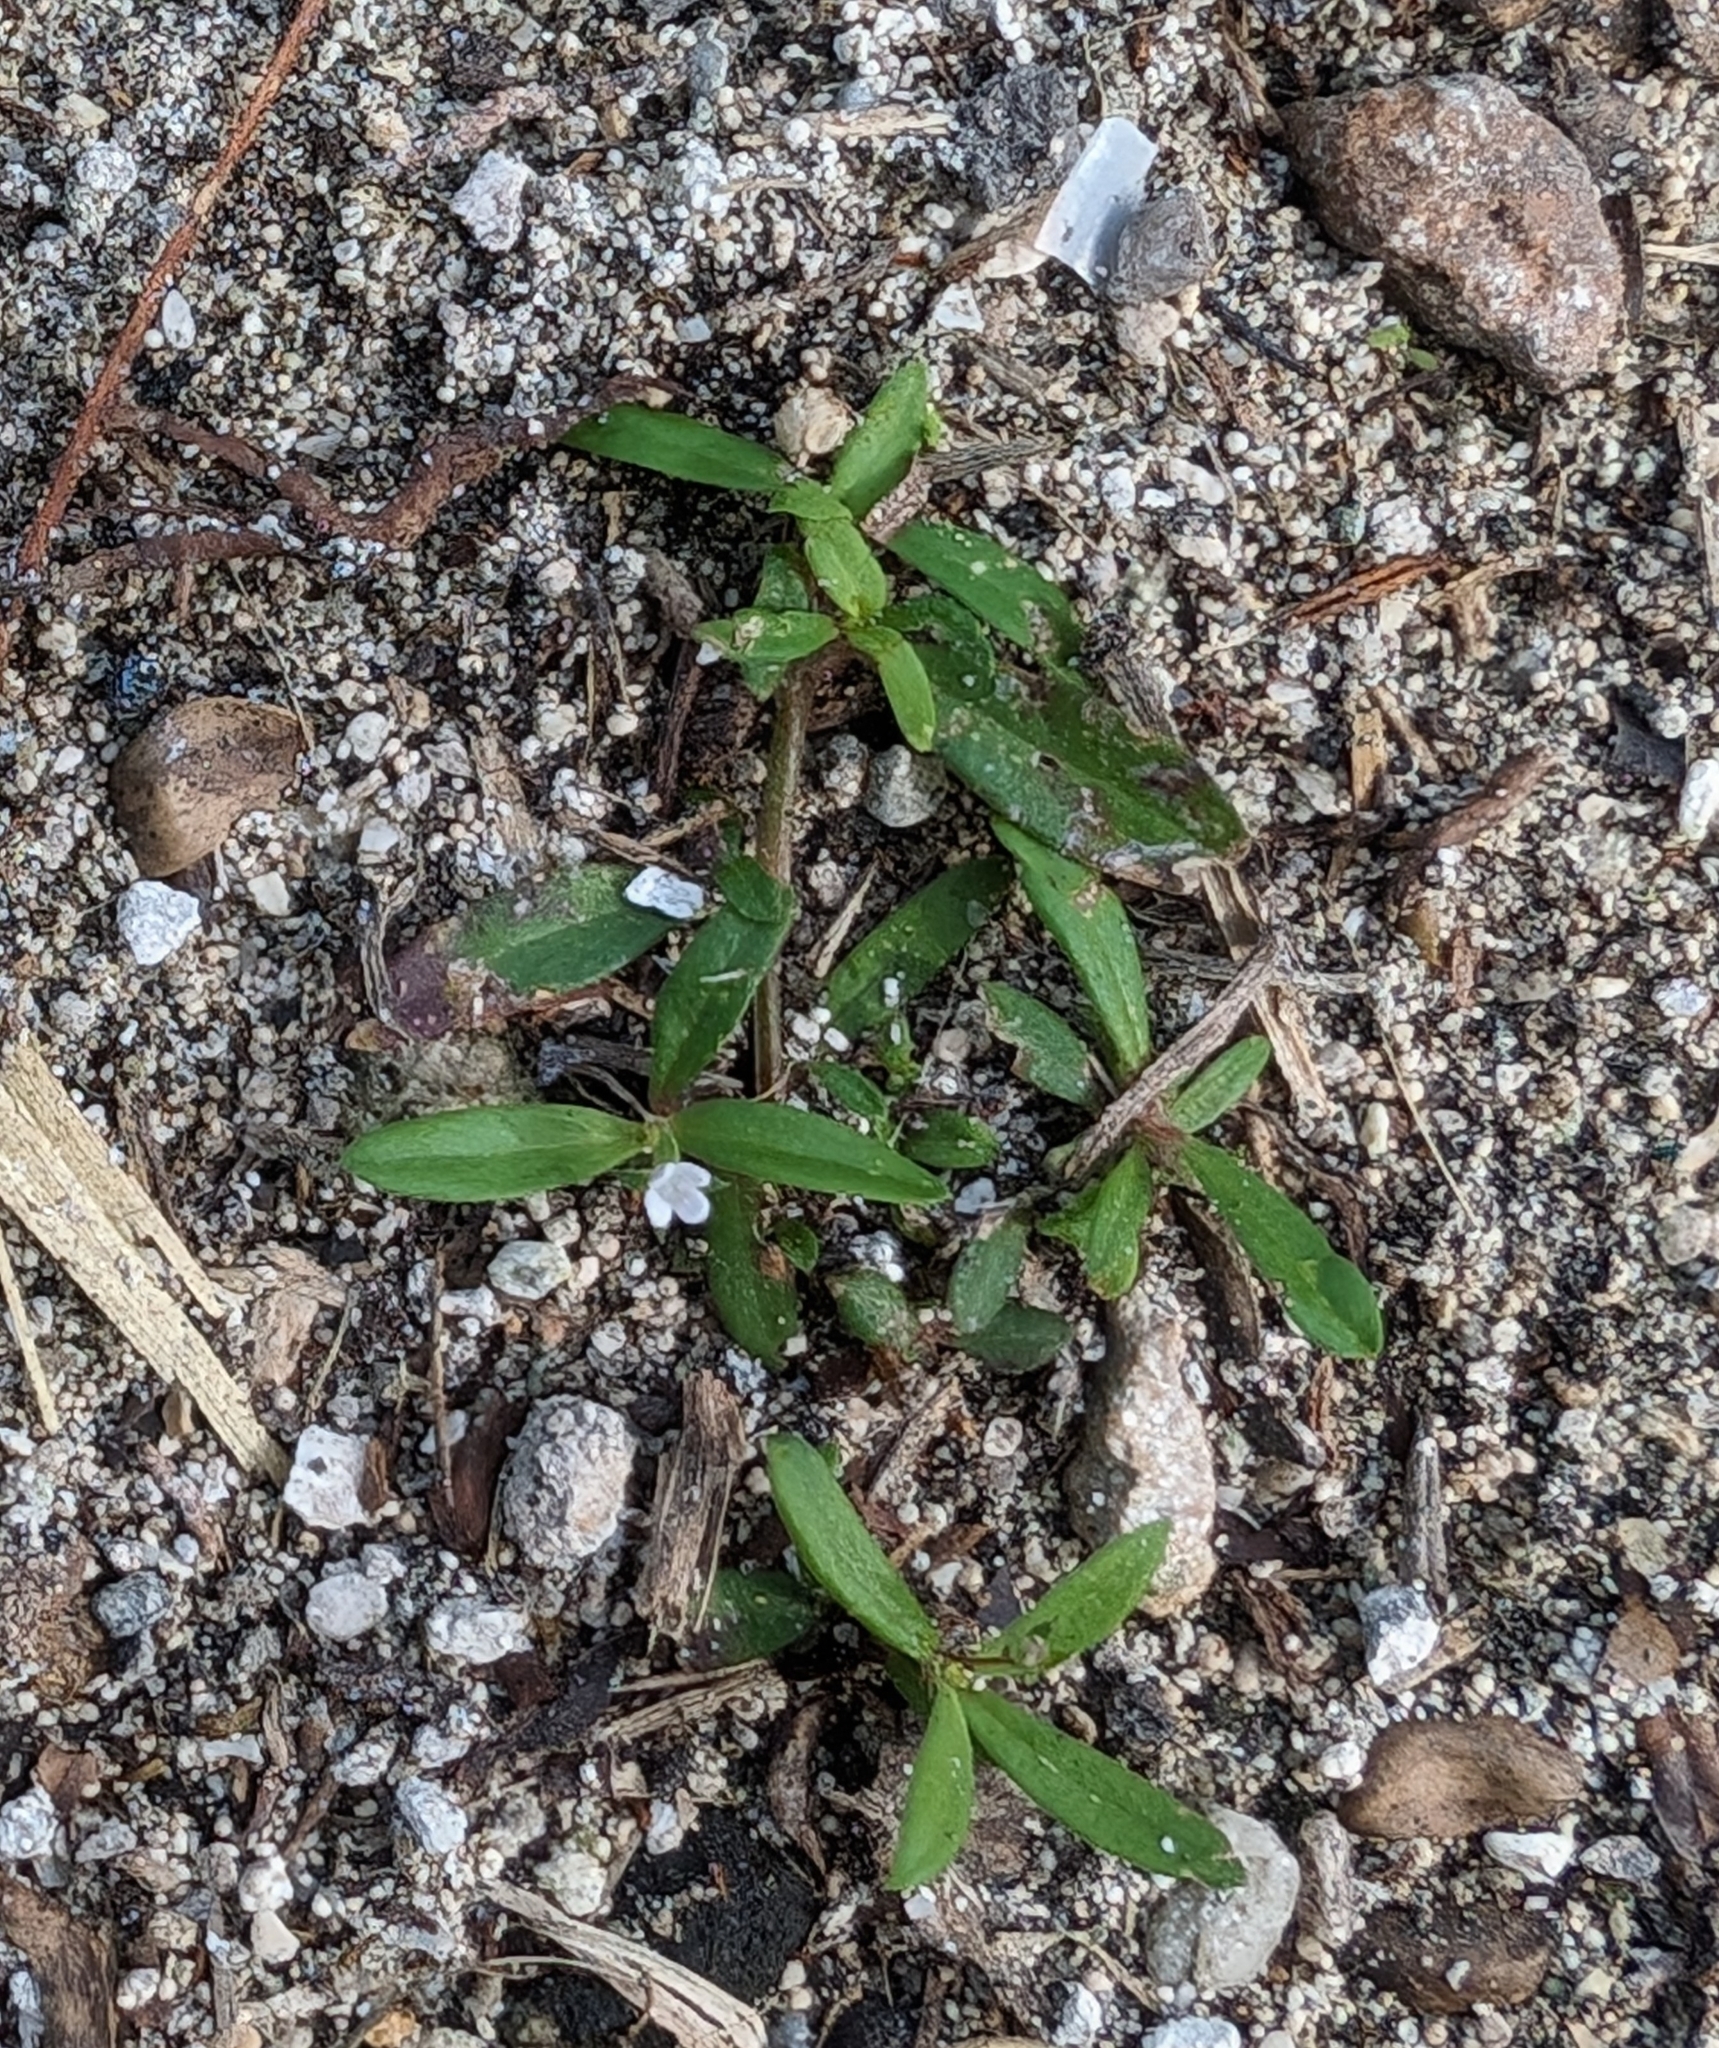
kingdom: Plantae
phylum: Tracheophyta
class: Magnoliopsida
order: Gentianales
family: Rubiaceae
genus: Oldenlandia
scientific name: Oldenlandia corymbosa
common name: Flat-top mille graines
